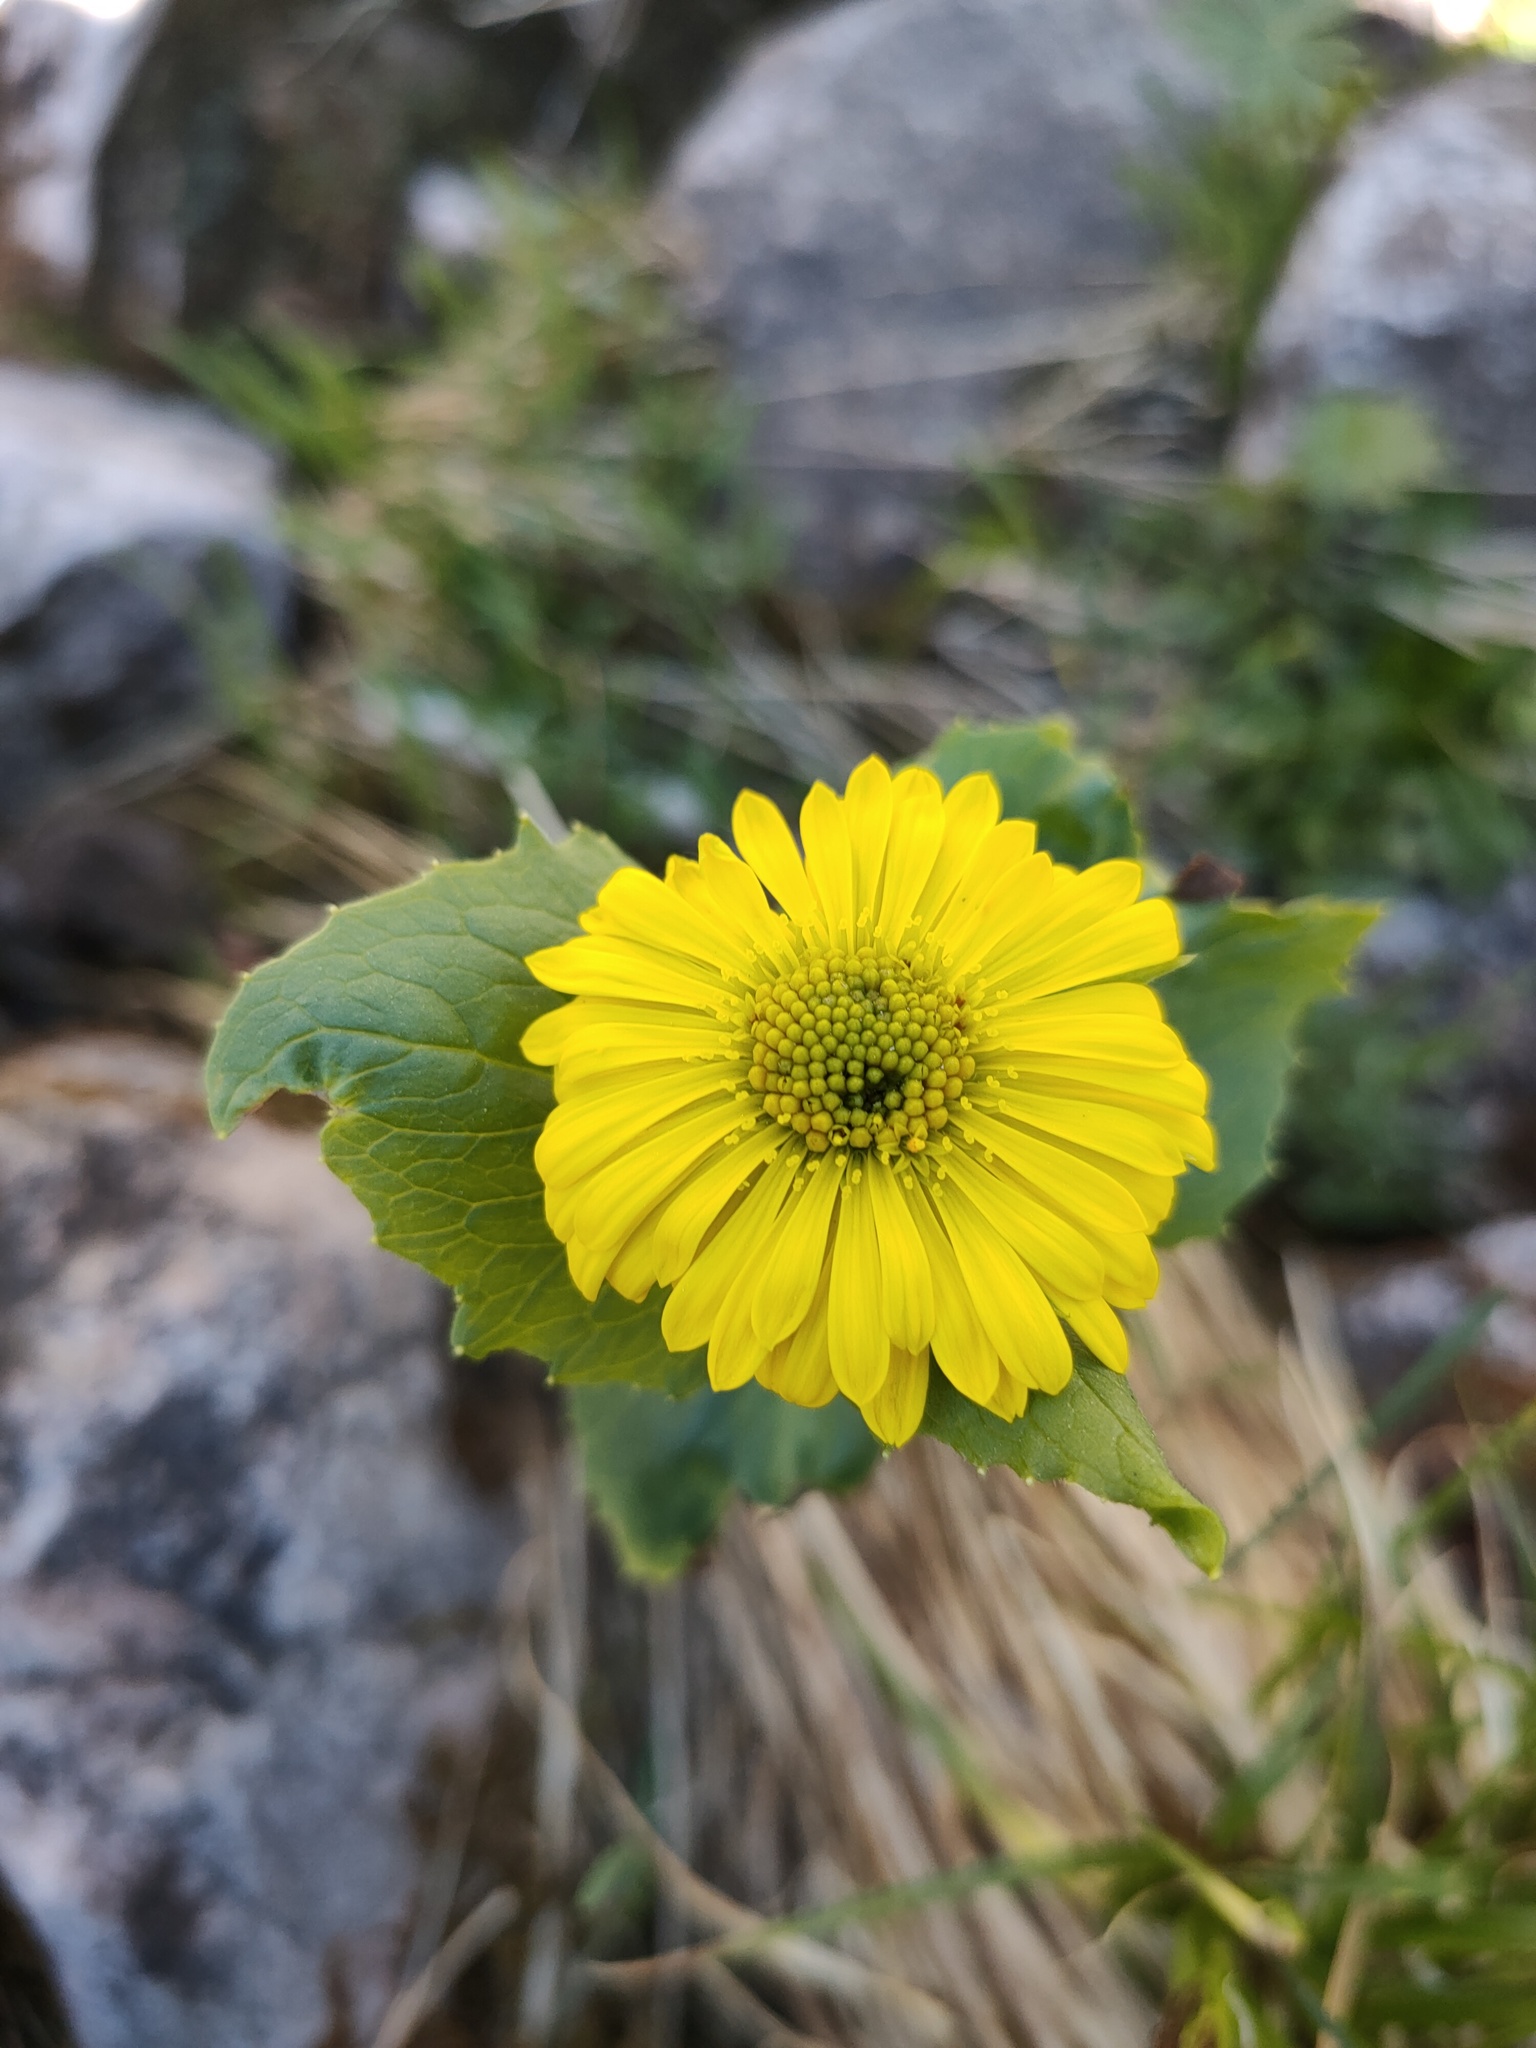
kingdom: Plantae
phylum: Tracheophyta
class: Magnoliopsida
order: Asterales
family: Asteraceae
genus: Doronicum
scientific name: Doronicum altaicum
